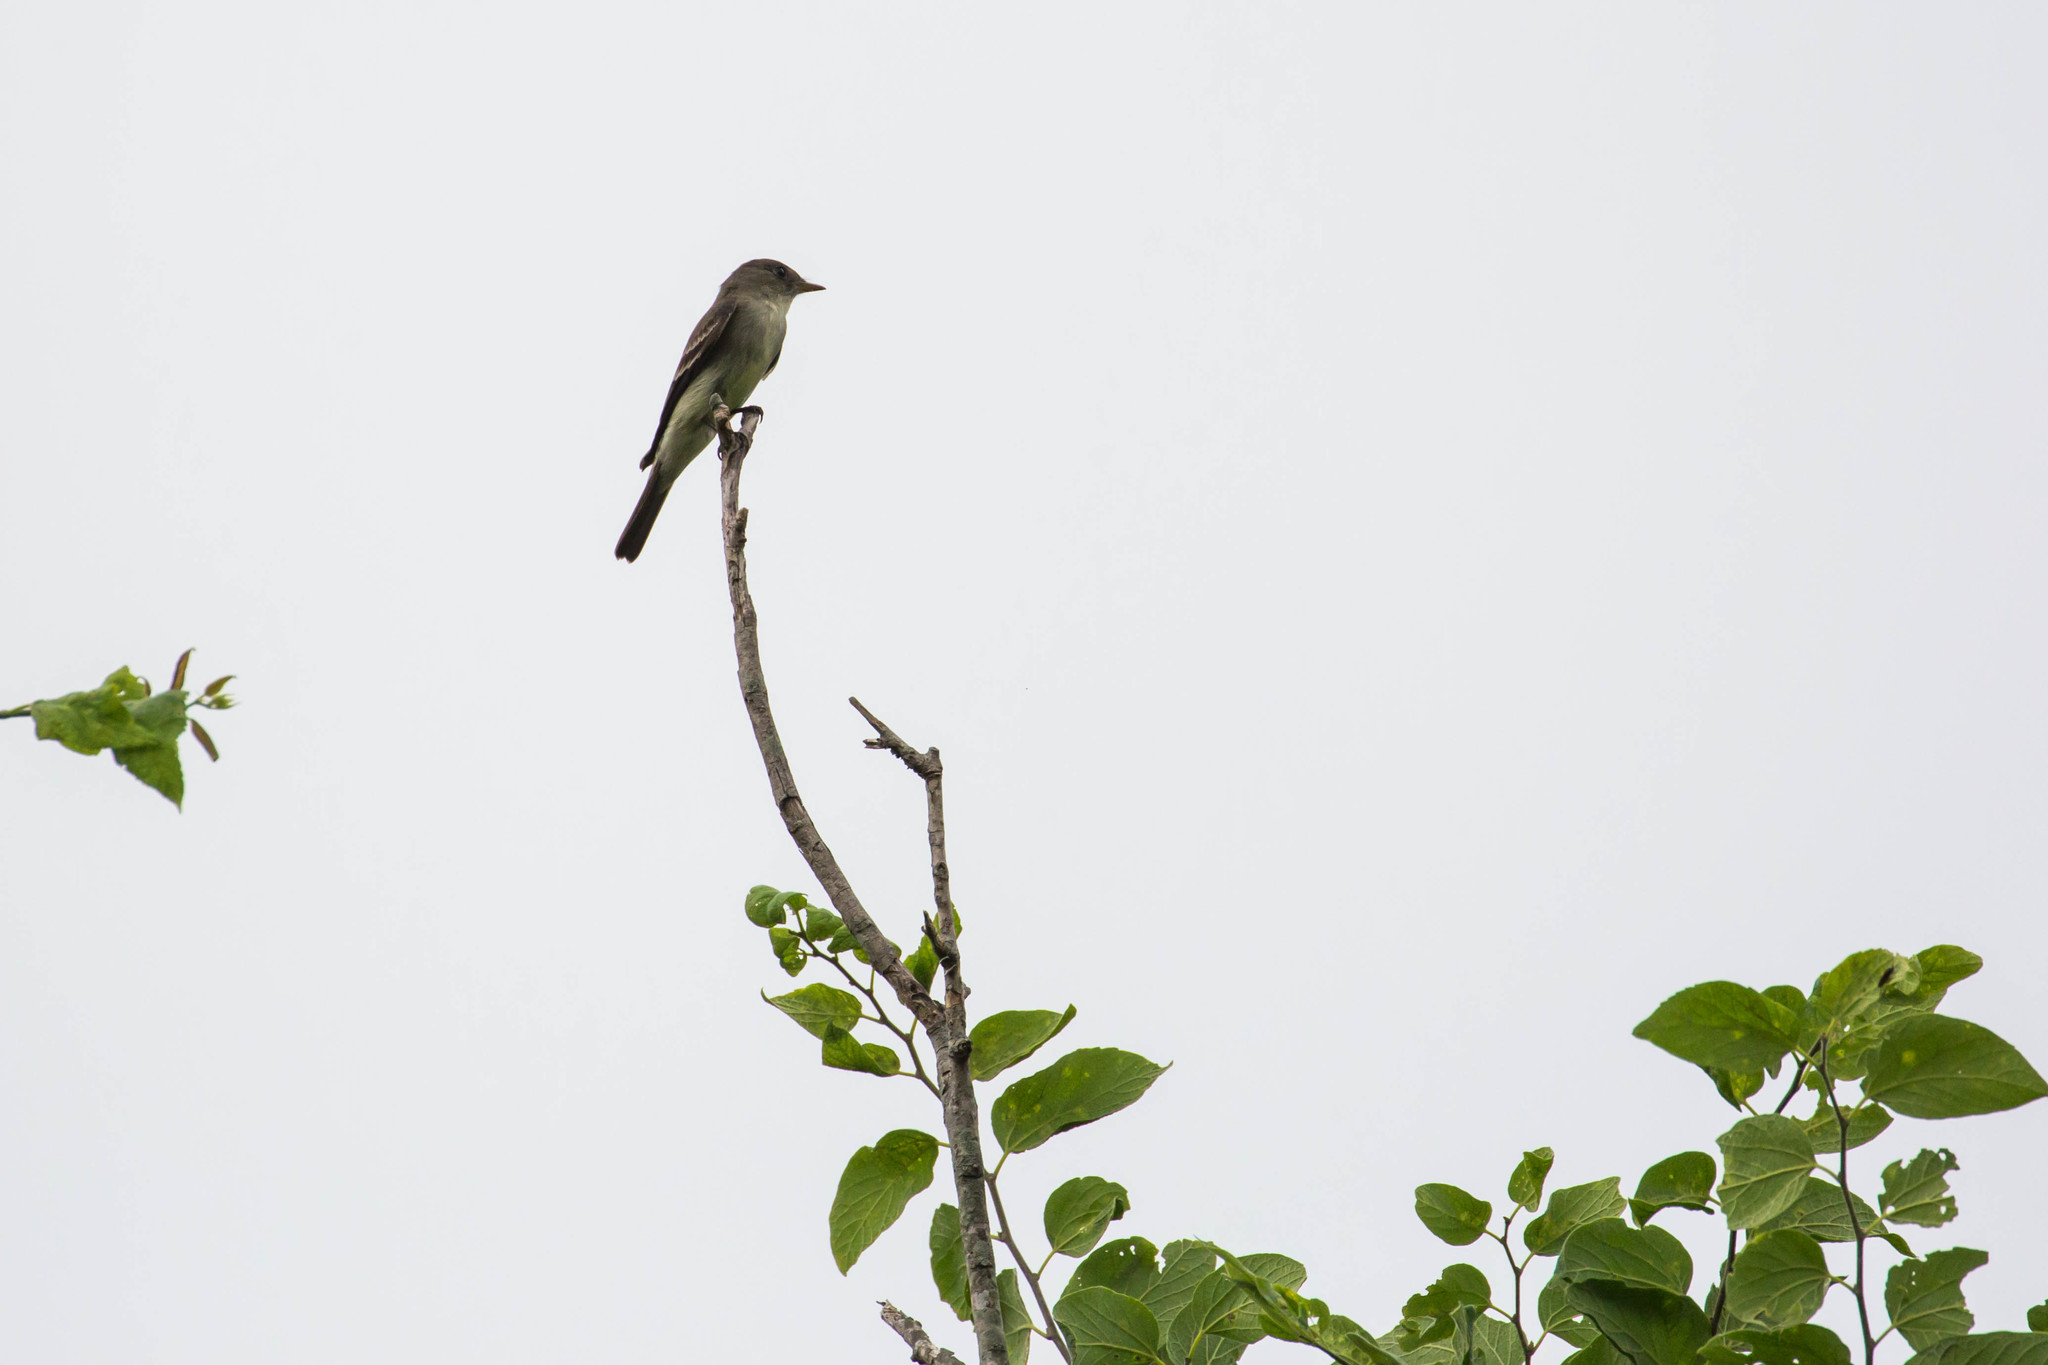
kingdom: Animalia
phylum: Chordata
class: Aves
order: Passeriformes
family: Tyrannidae
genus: Contopus
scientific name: Contopus virens
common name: Eastern wood-pewee
